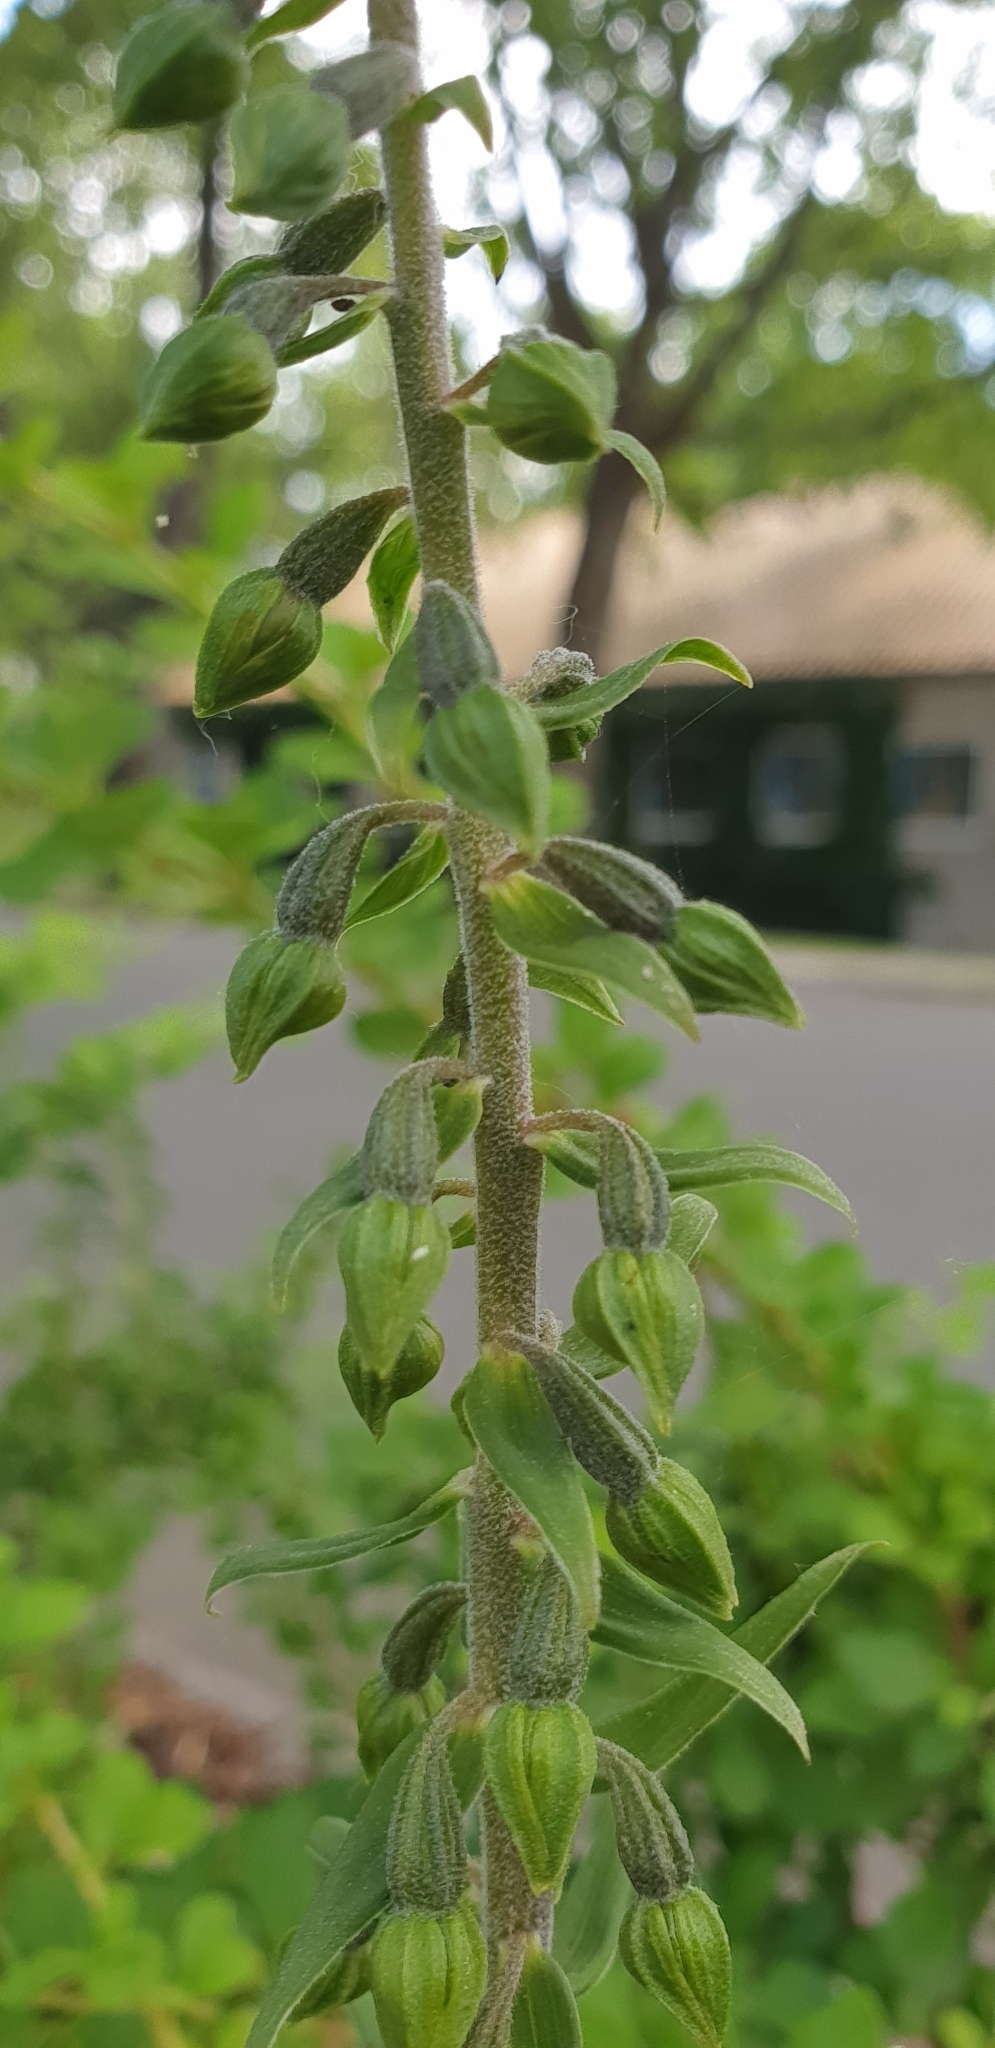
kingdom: Plantae
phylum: Tracheophyta
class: Liliopsida
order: Asparagales
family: Orchidaceae
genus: Epipactis
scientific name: Epipactis helleborine
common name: Broad-leaved helleborine
